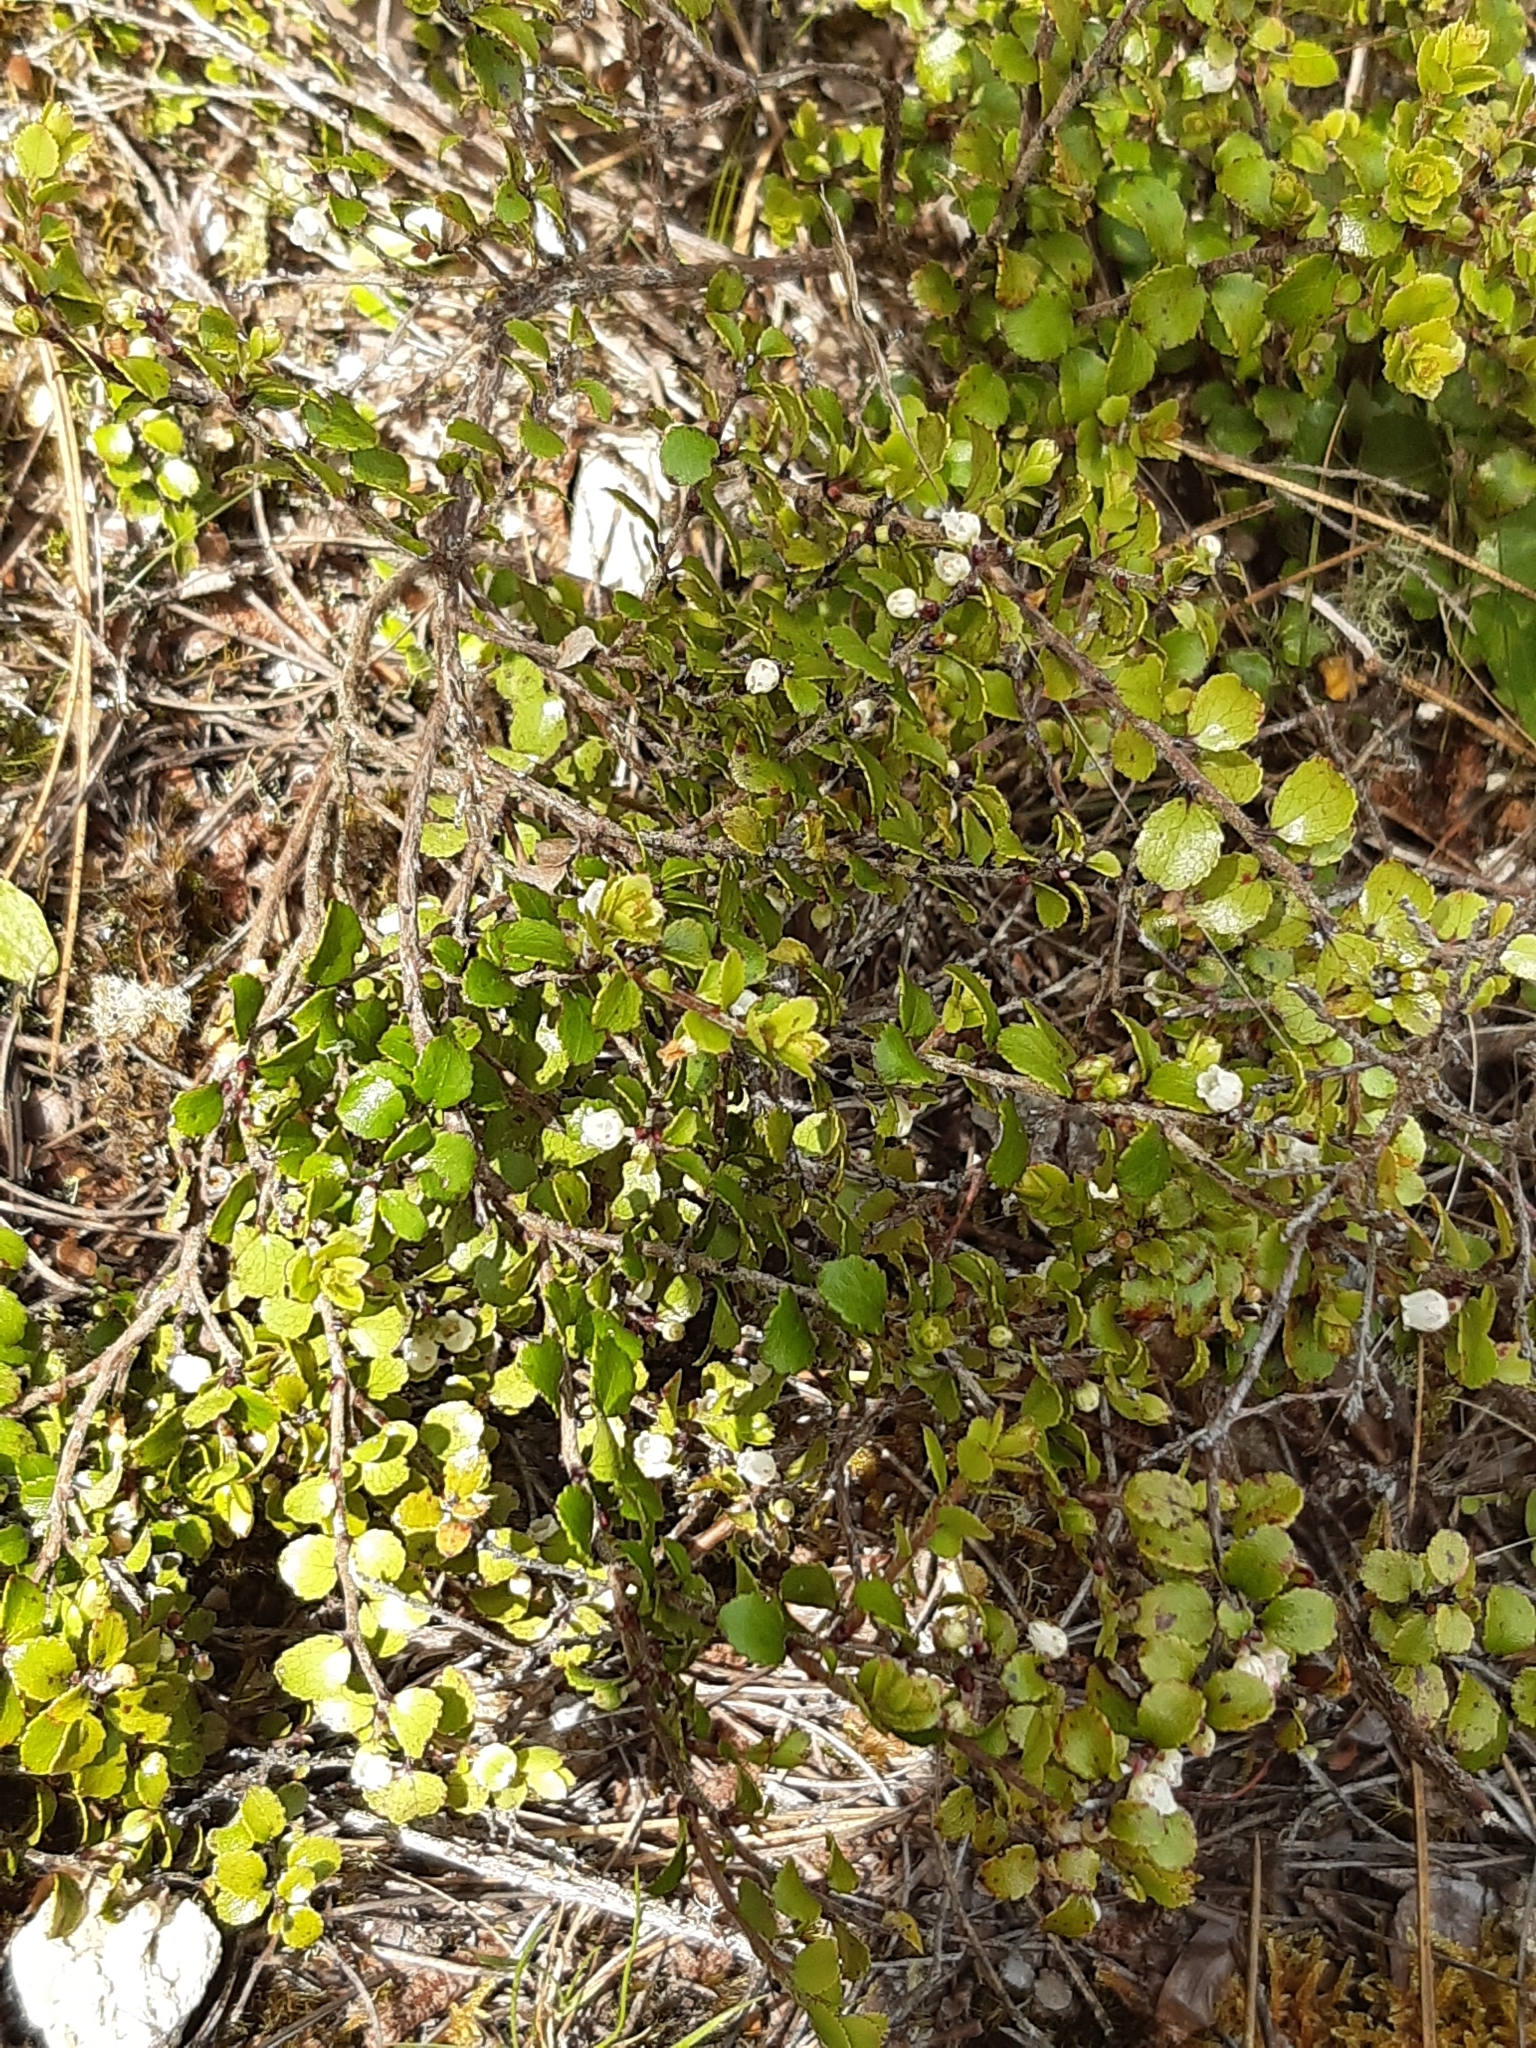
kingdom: Plantae
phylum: Tracheophyta
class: Magnoliopsida
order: Ericales
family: Ericaceae
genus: Gaultheria
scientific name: Gaultheria antipoda
